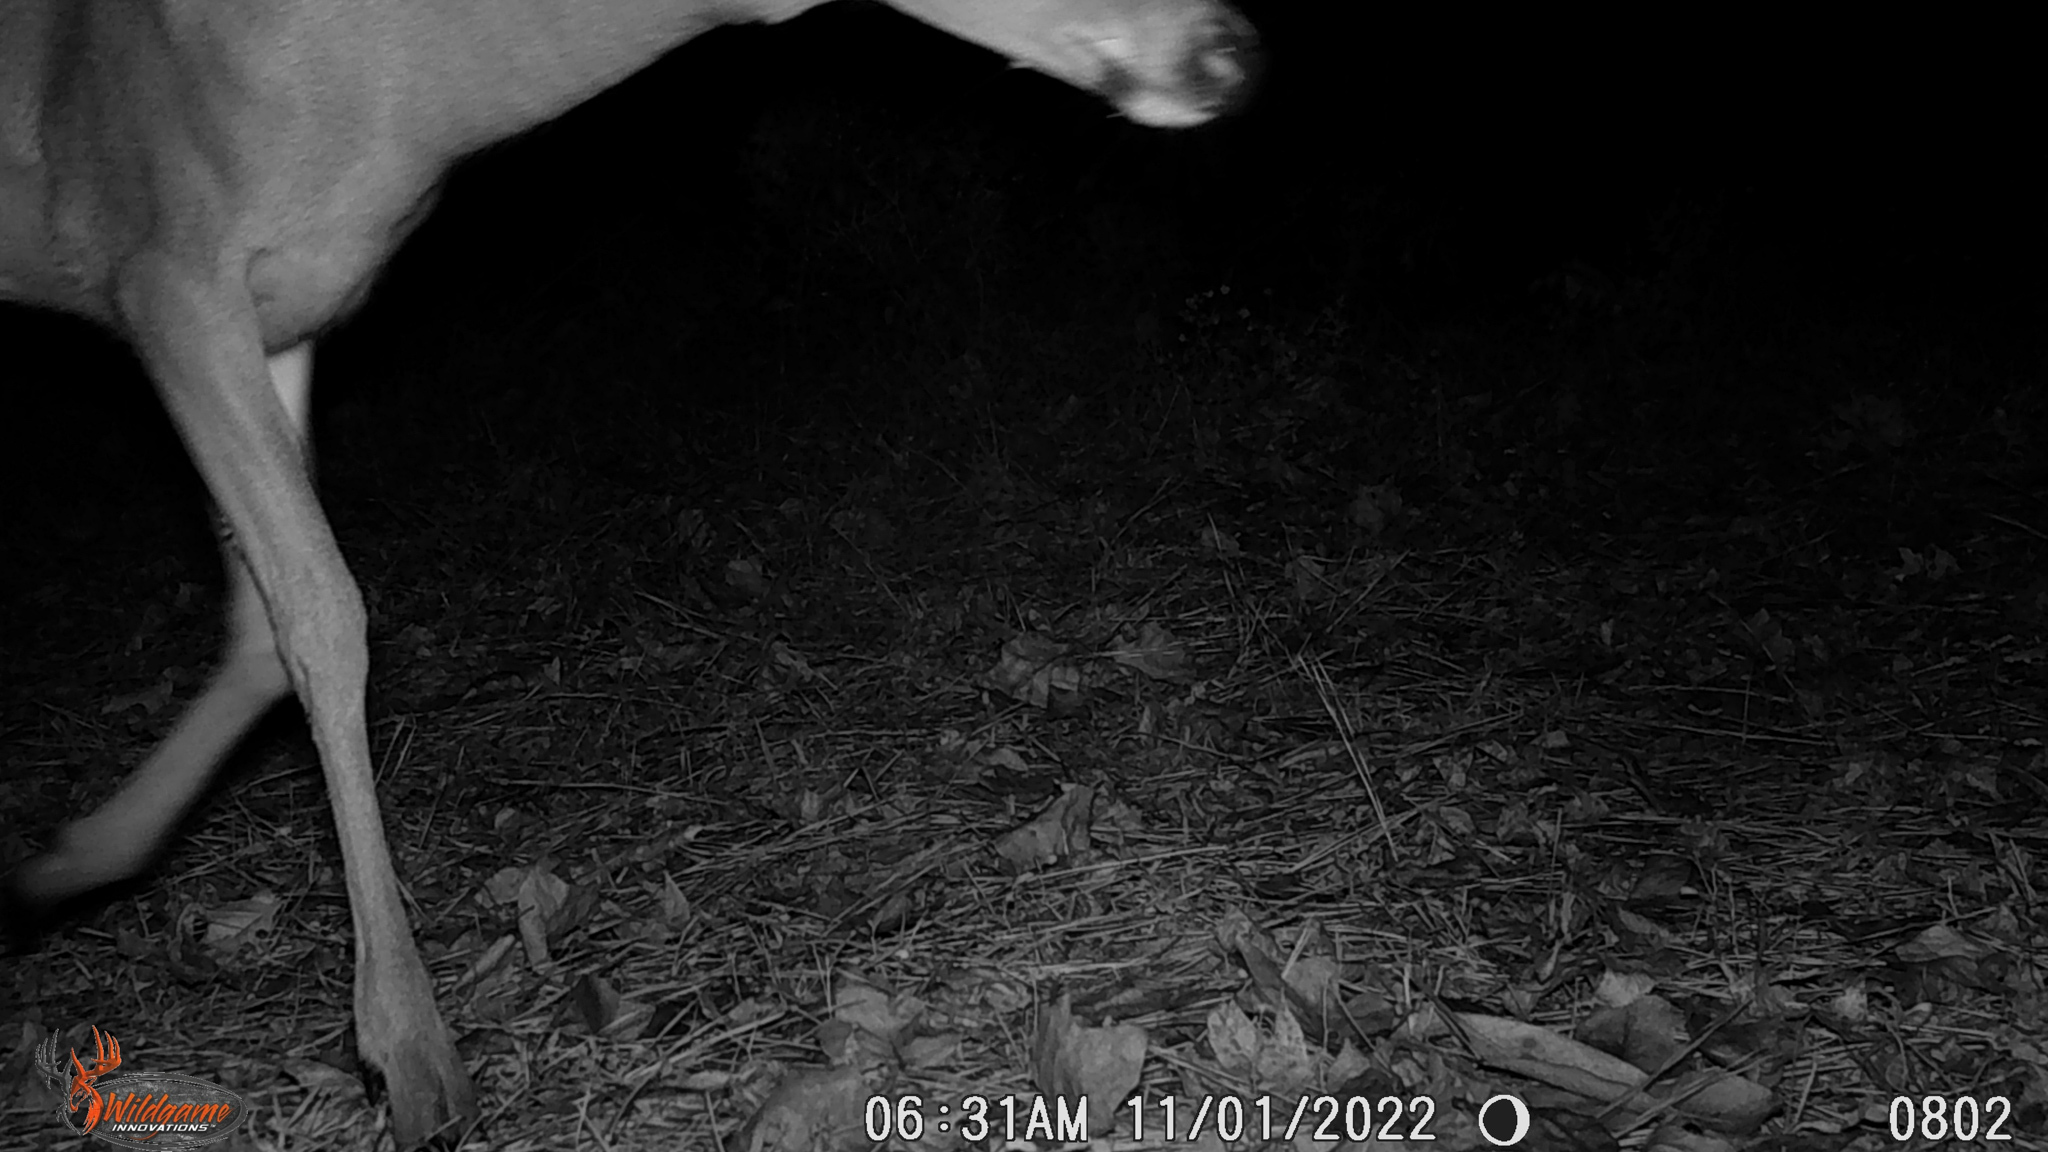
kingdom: Animalia
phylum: Chordata
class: Mammalia
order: Artiodactyla
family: Cervidae
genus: Odocoileus
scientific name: Odocoileus virginianus
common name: White-tailed deer
